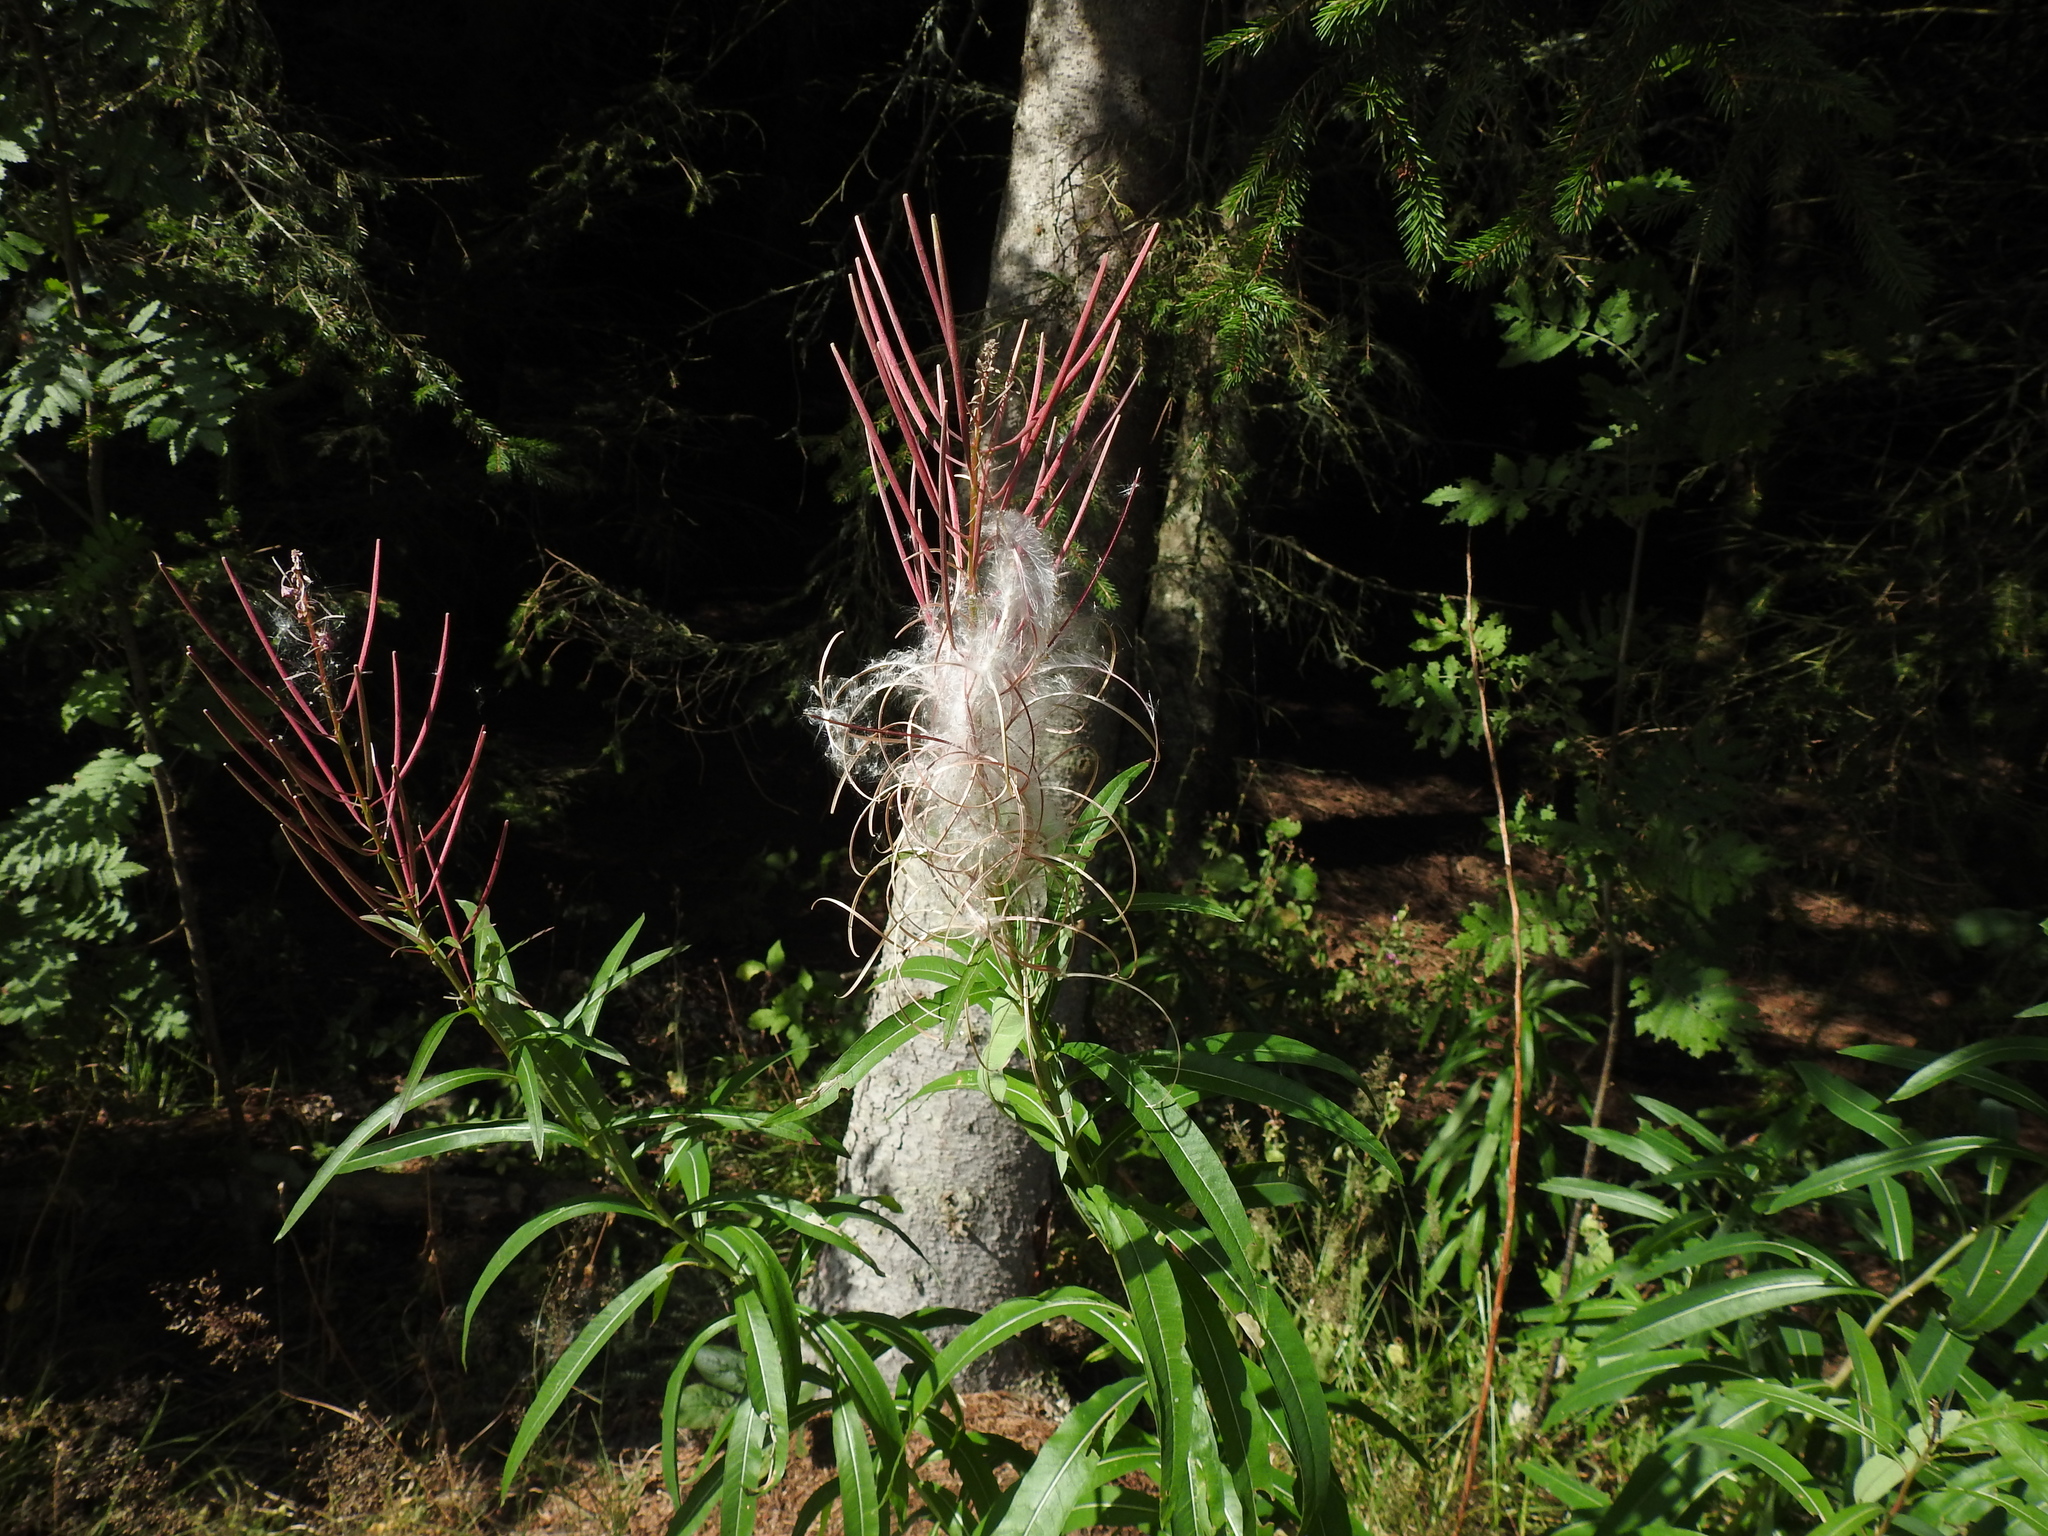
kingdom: Plantae
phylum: Tracheophyta
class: Magnoliopsida
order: Myrtales
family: Onagraceae
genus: Chamaenerion
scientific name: Chamaenerion angustifolium
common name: Fireweed
